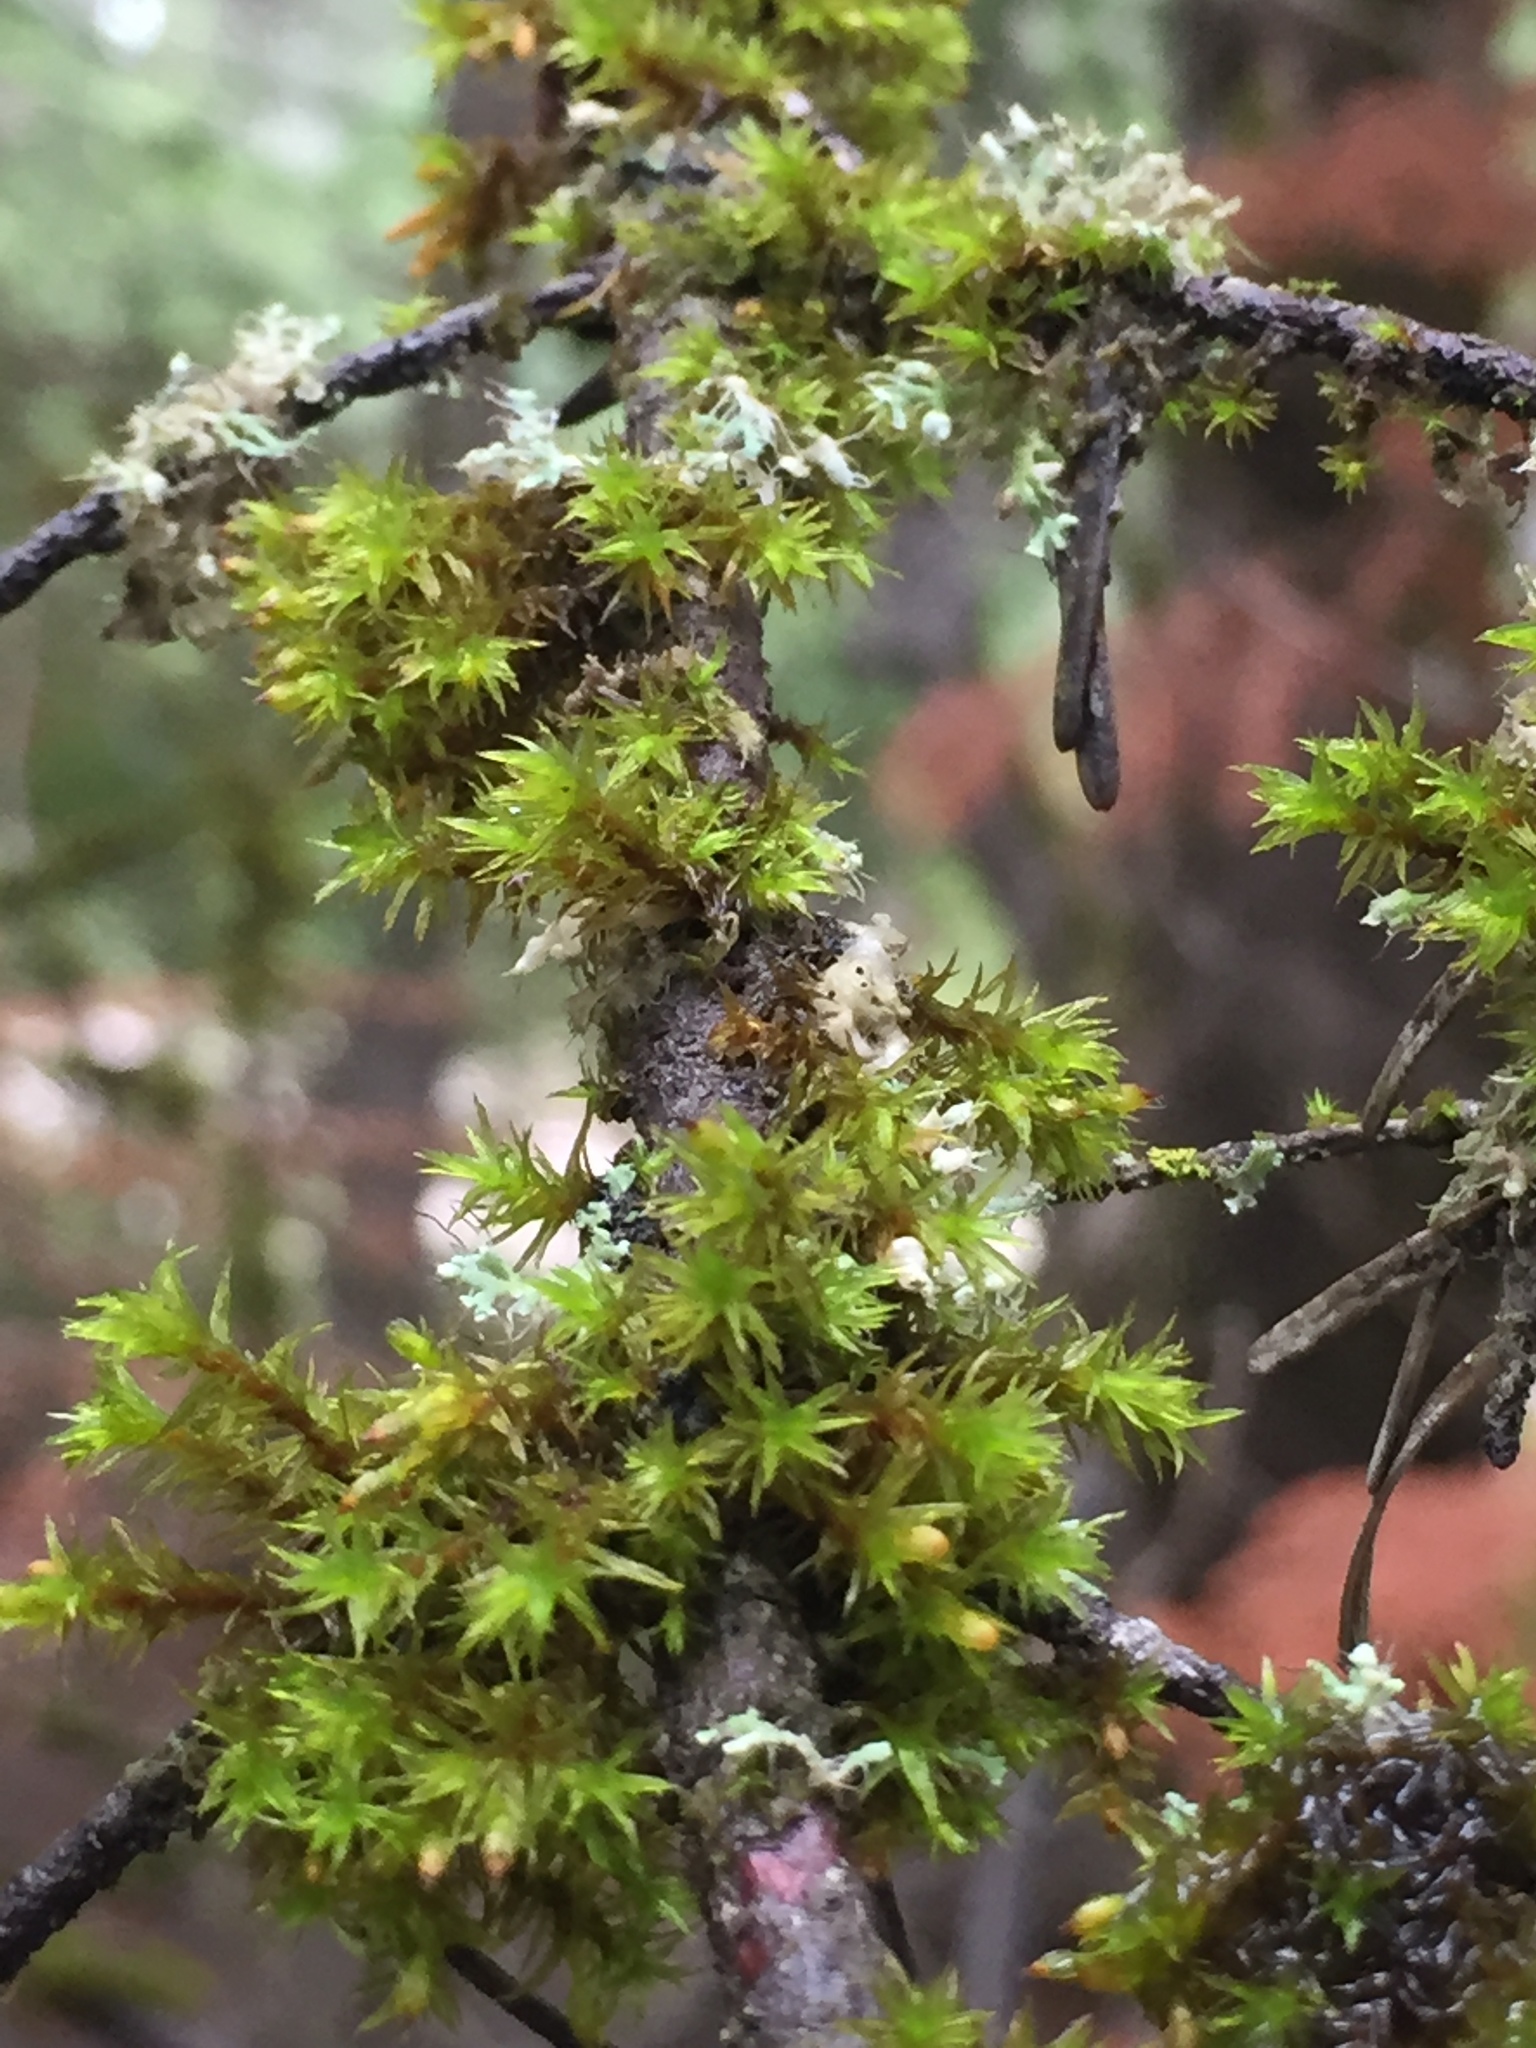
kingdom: Plantae
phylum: Bryophyta
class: Bryopsida
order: Orthotrichales
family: Orthotrichaceae
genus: Orthotrichum
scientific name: Orthotrichum
